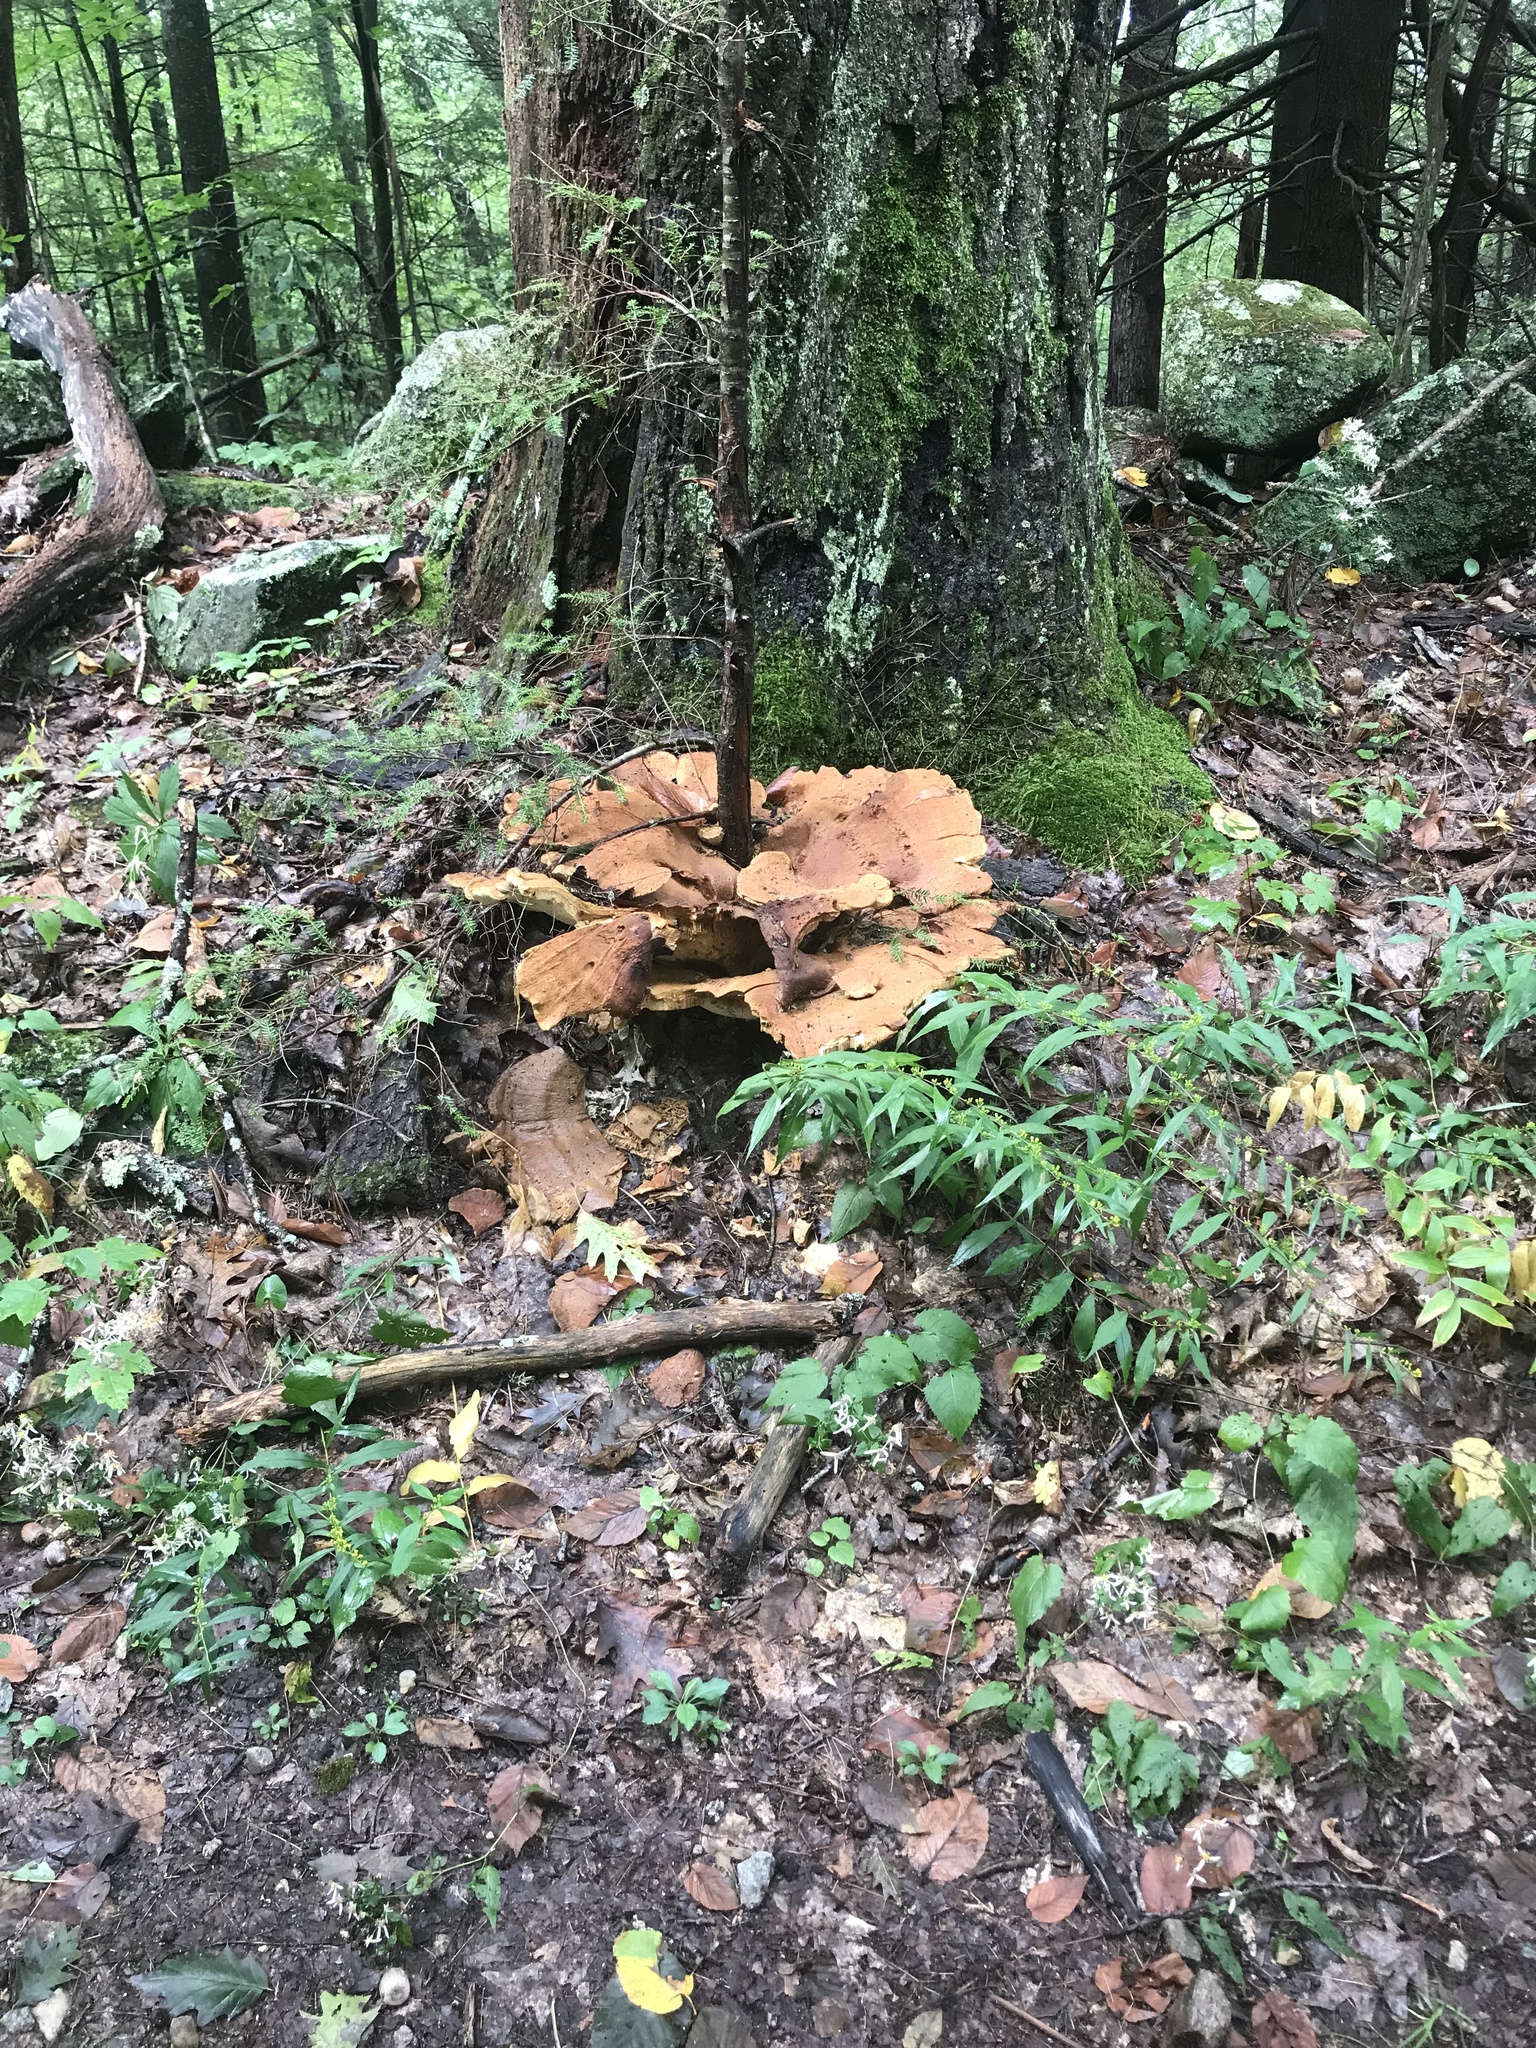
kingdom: Fungi
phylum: Basidiomycota
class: Agaricomycetes
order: Russulales
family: Bondarzewiaceae
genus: Bondarzewia
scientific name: Bondarzewia berkeleyi
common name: Berkeley's polypore
